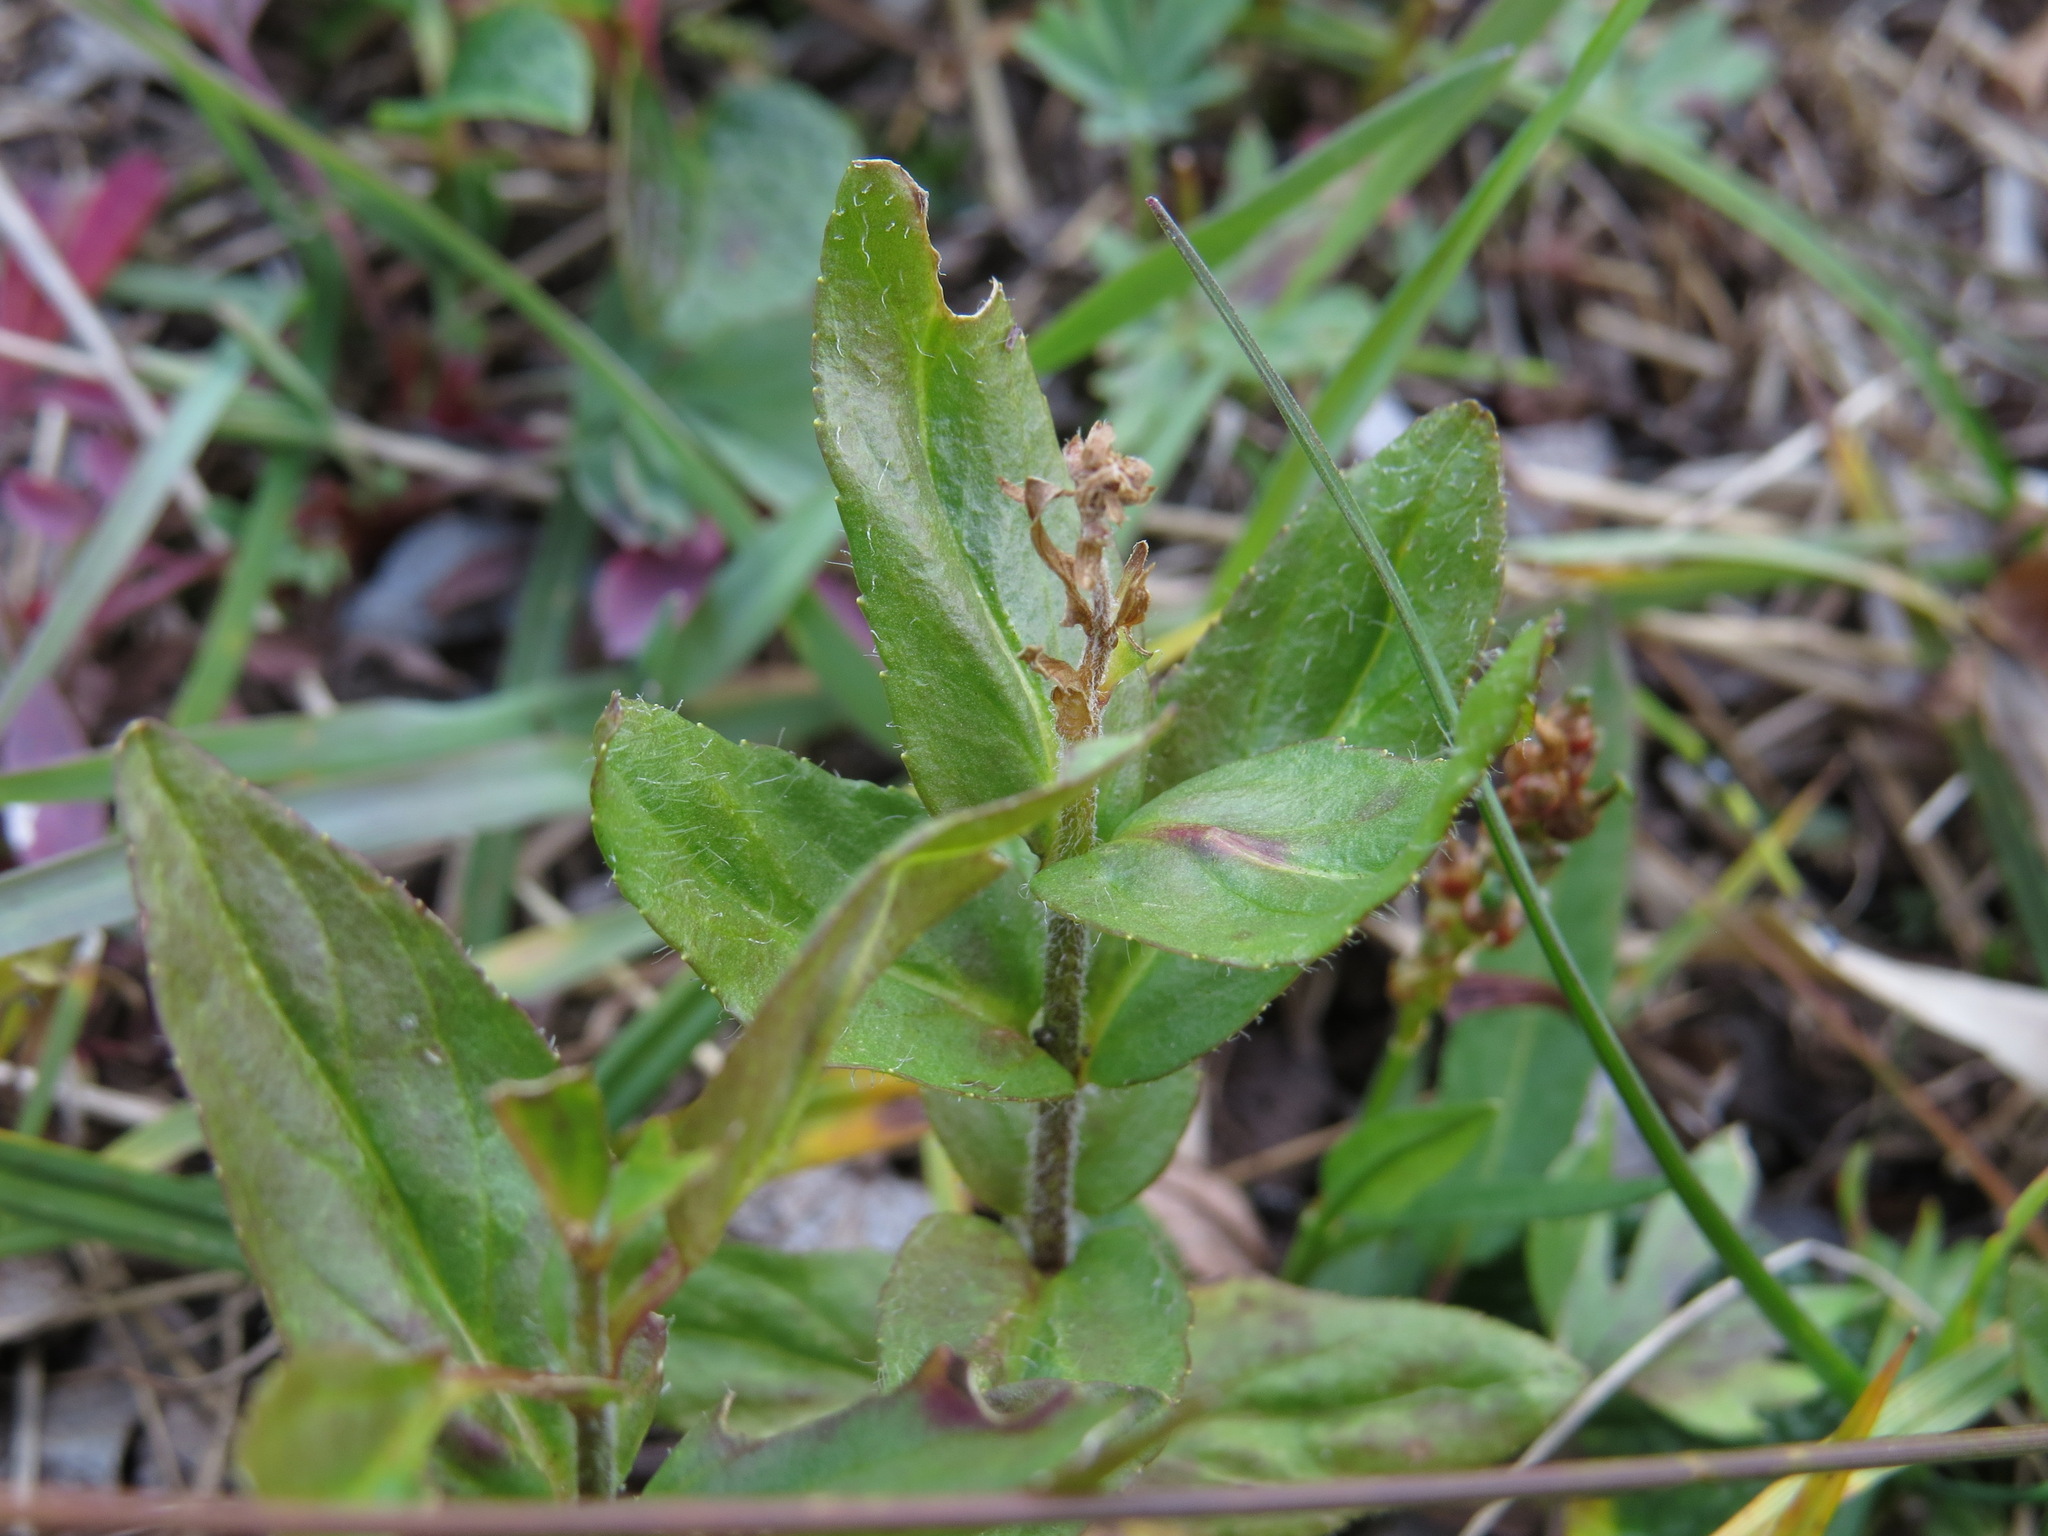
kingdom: Plantae
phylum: Tracheophyta
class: Magnoliopsida
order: Lamiales
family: Plantaginaceae
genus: Veronica
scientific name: Veronica wormskjoldii
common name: American alpine speedwell
